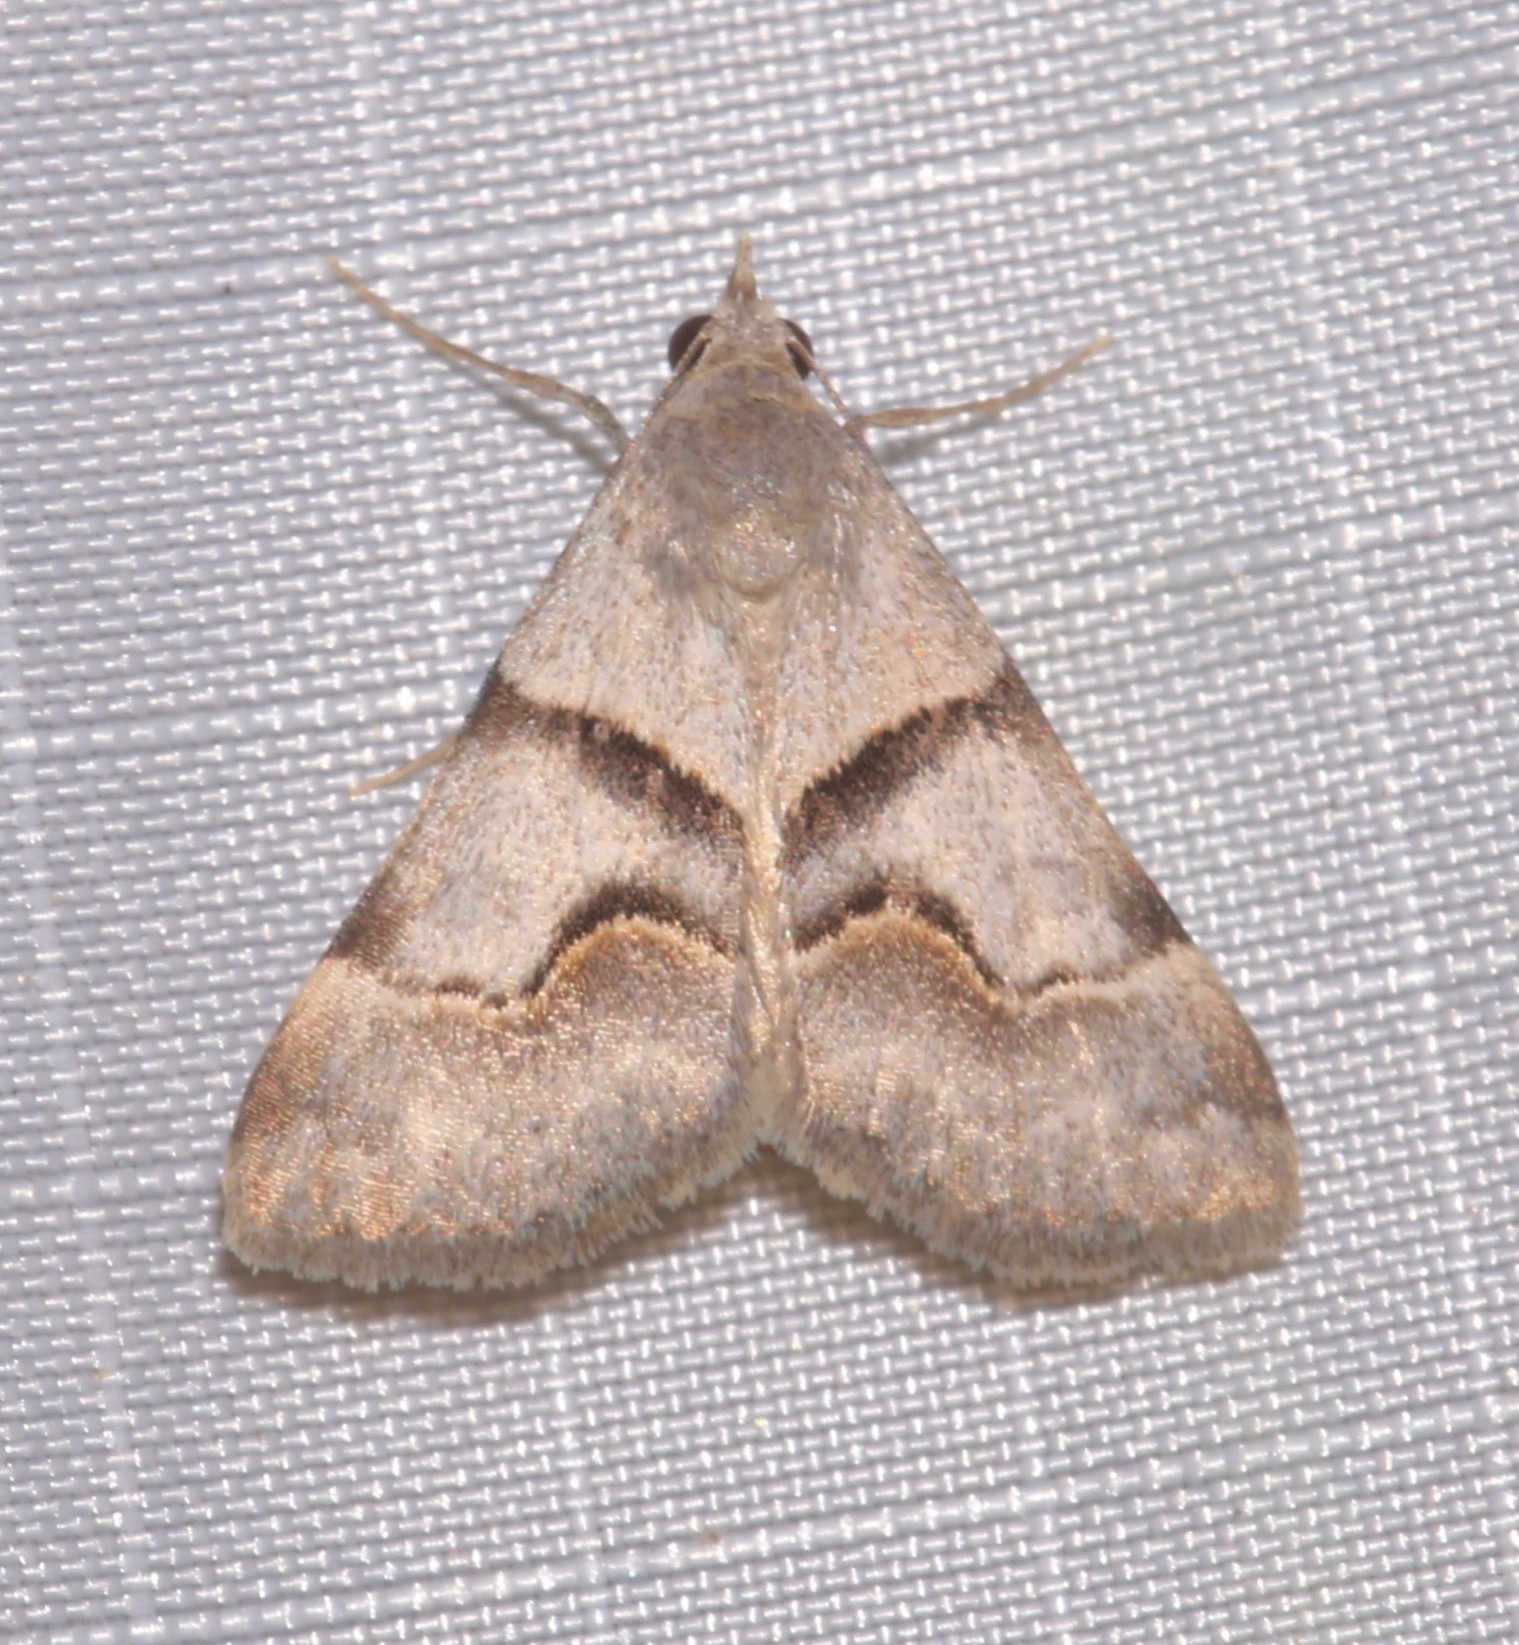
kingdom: Animalia
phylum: Arthropoda
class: Insecta
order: Lepidoptera
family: Erebidae
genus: Hemeroplanis
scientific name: Hemeroplanis incusalis
